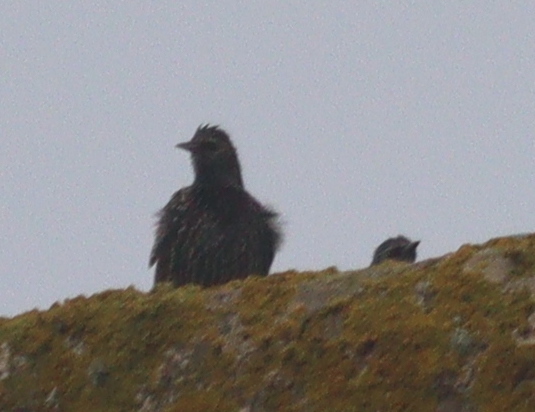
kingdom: Animalia
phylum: Chordata
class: Aves
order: Passeriformes
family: Sturnidae
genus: Sturnus
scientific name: Sturnus vulgaris
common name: Common starling
